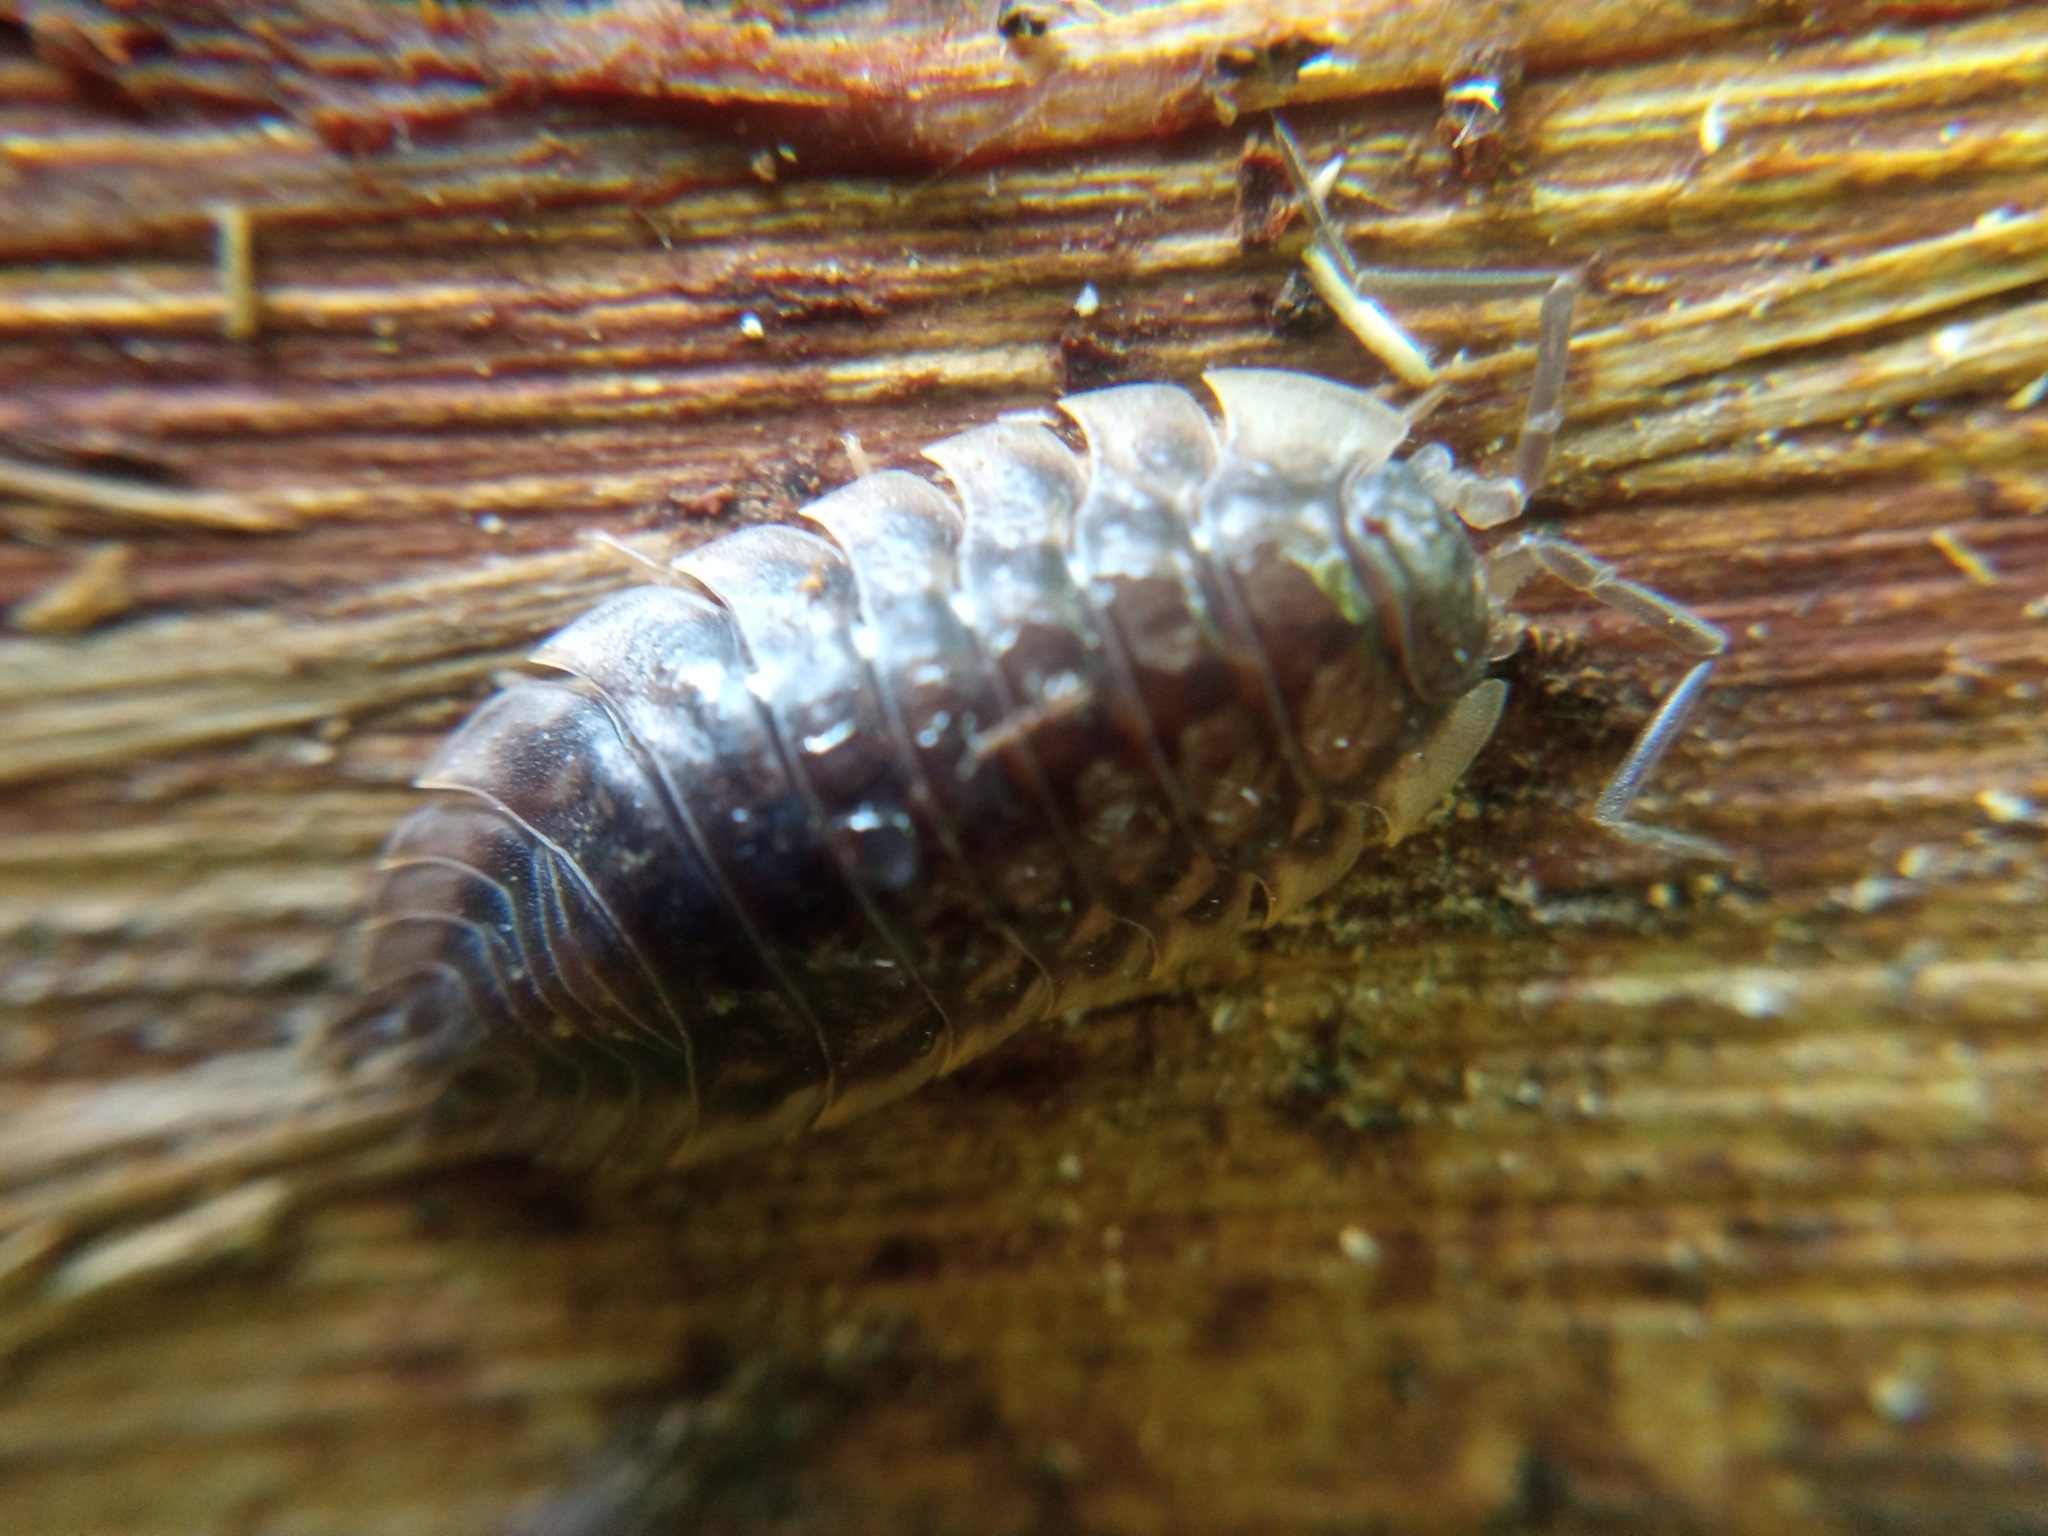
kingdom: Animalia
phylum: Arthropoda
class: Malacostraca
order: Isopoda
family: Oniscidae
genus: Oniscus
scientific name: Oniscus asellus
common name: Common shiny woodlouse
